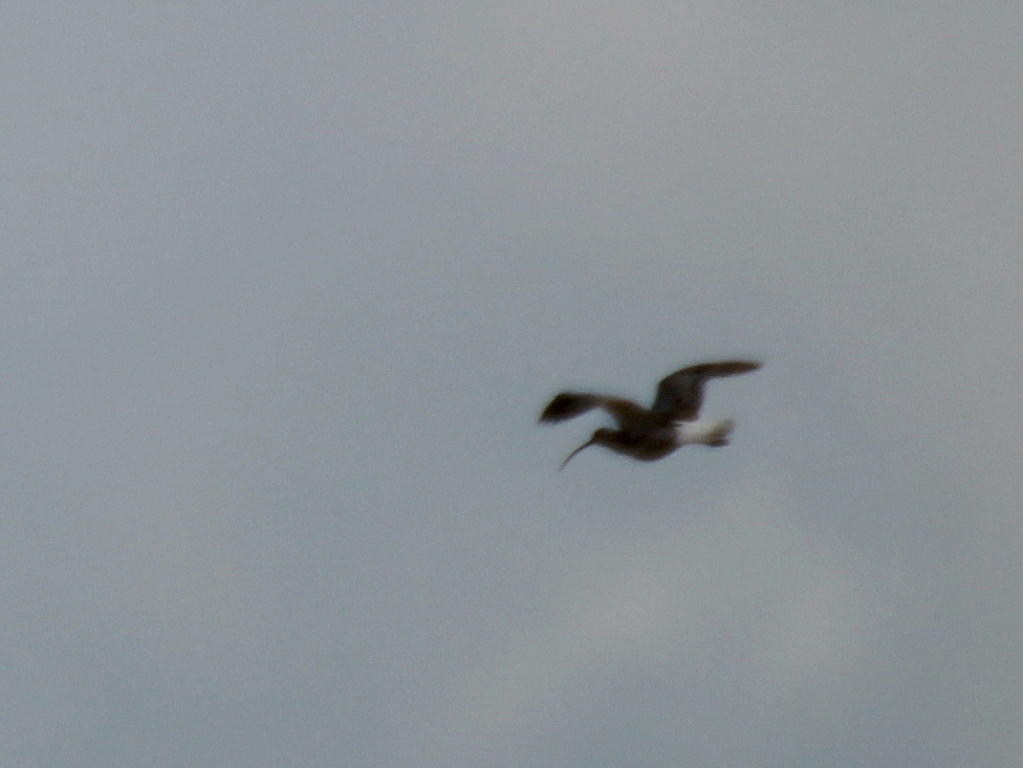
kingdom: Animalia
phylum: Chordata
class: Aves
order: Charadriiformes
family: Scolopacidae
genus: Numenius
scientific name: Numenius arquata
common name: Eurasian curlew
